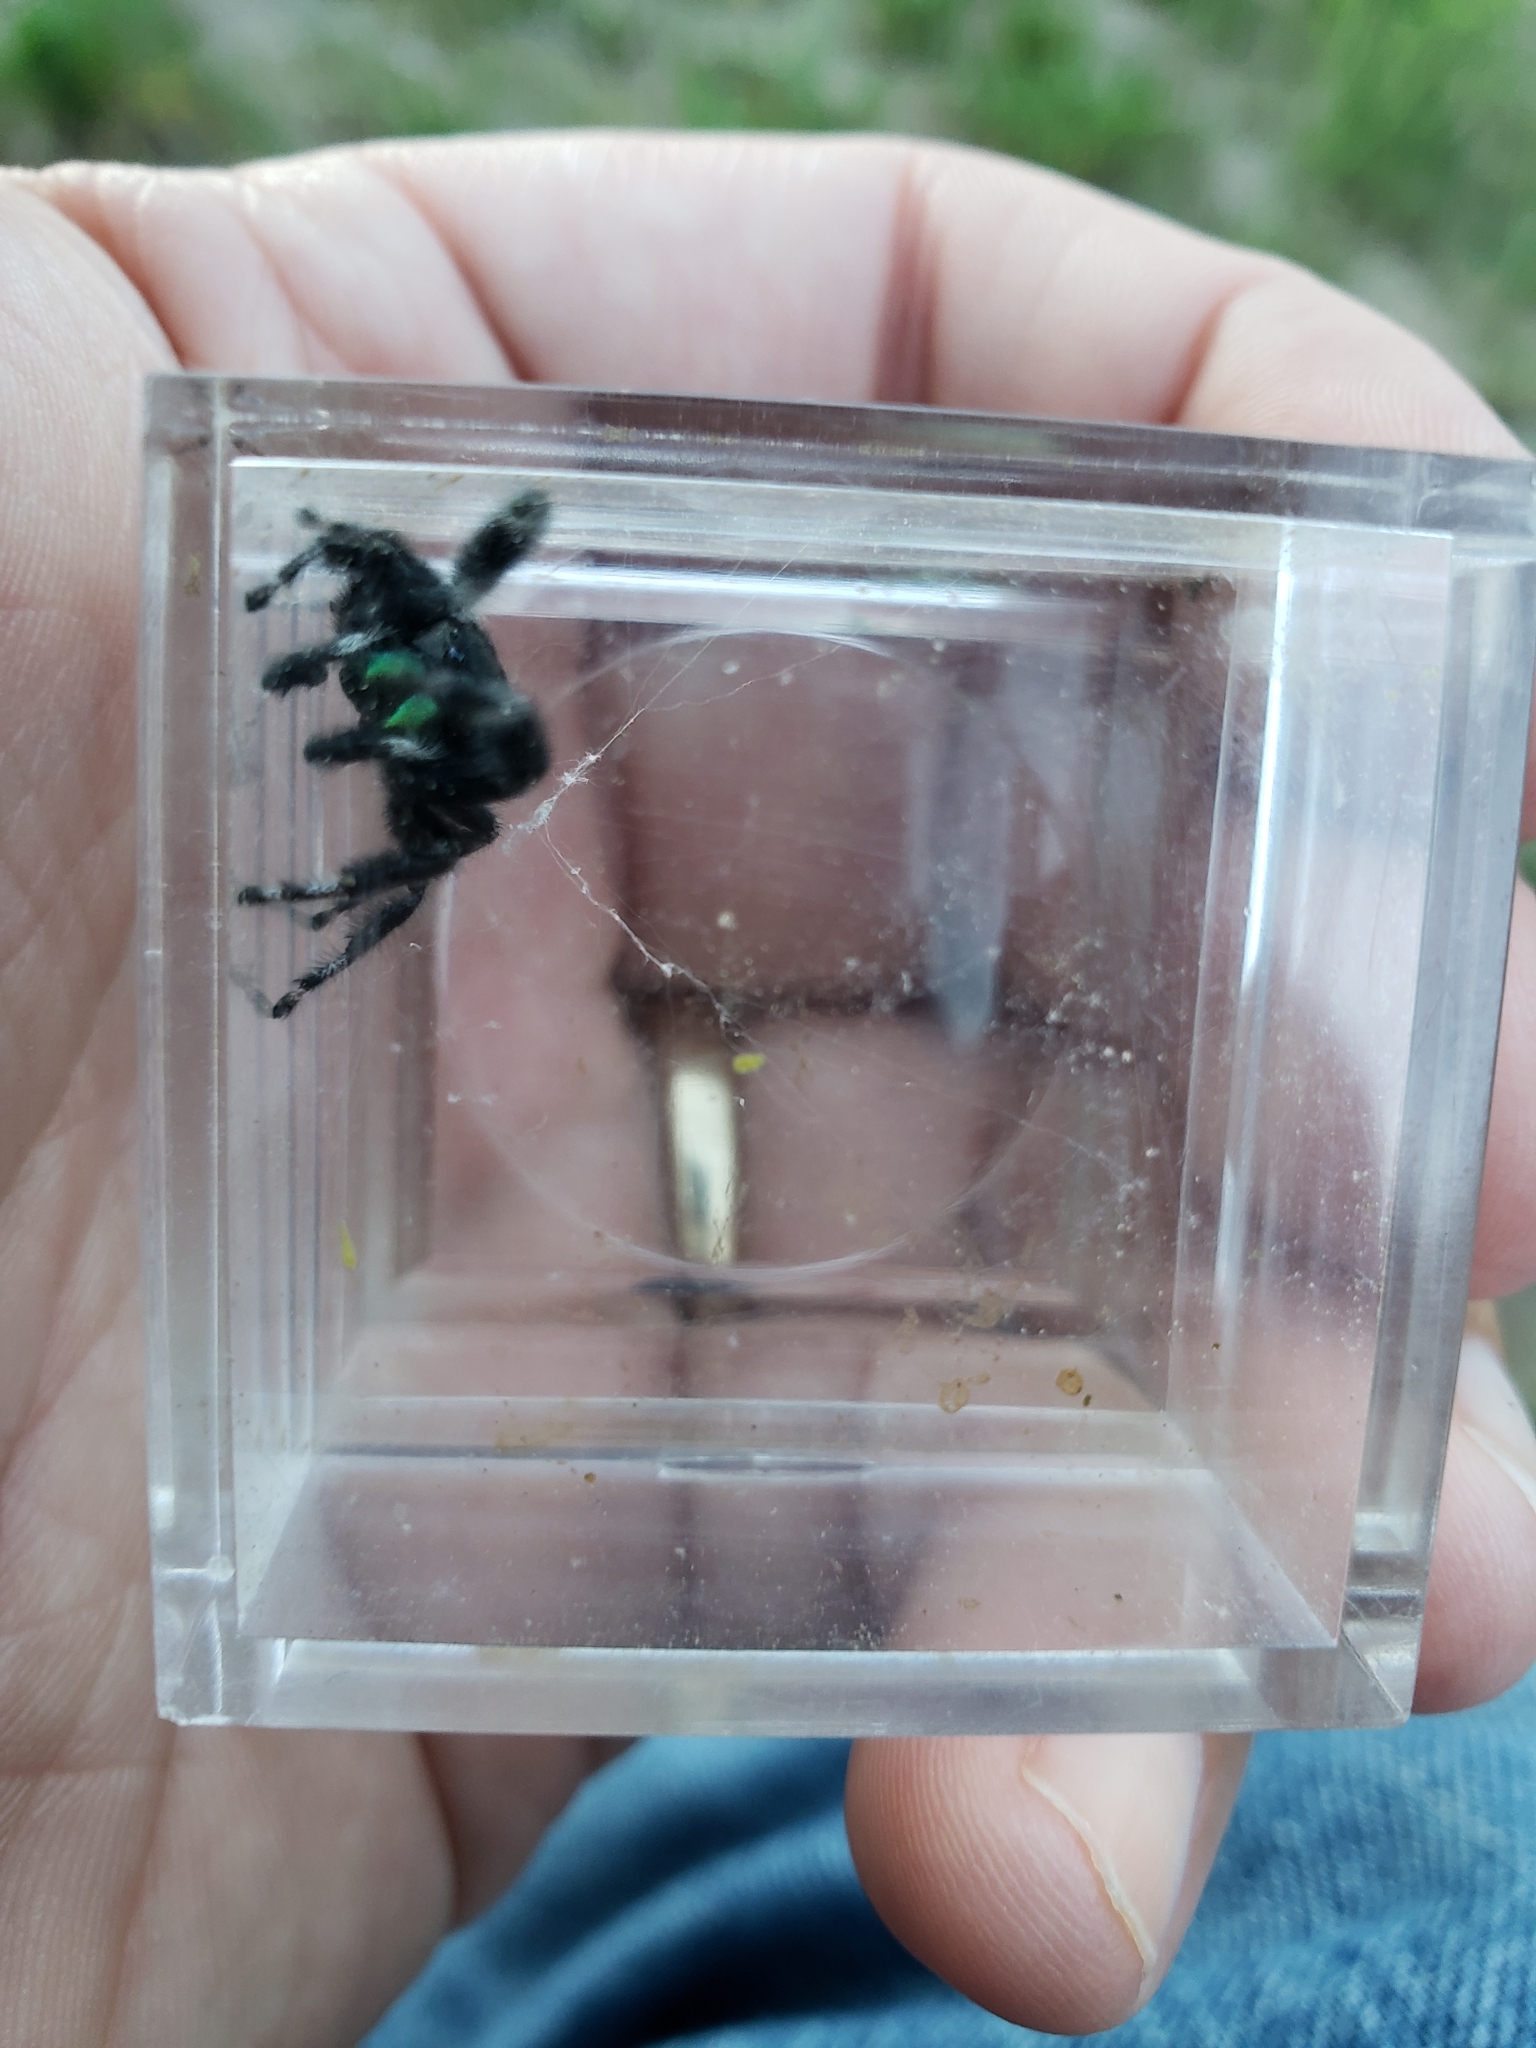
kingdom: Animalia
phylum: Arthropoda
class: Arachnida
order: Araneae
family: Salticidae
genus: Phidippus
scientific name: Phidippus audax
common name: Bold jumper
